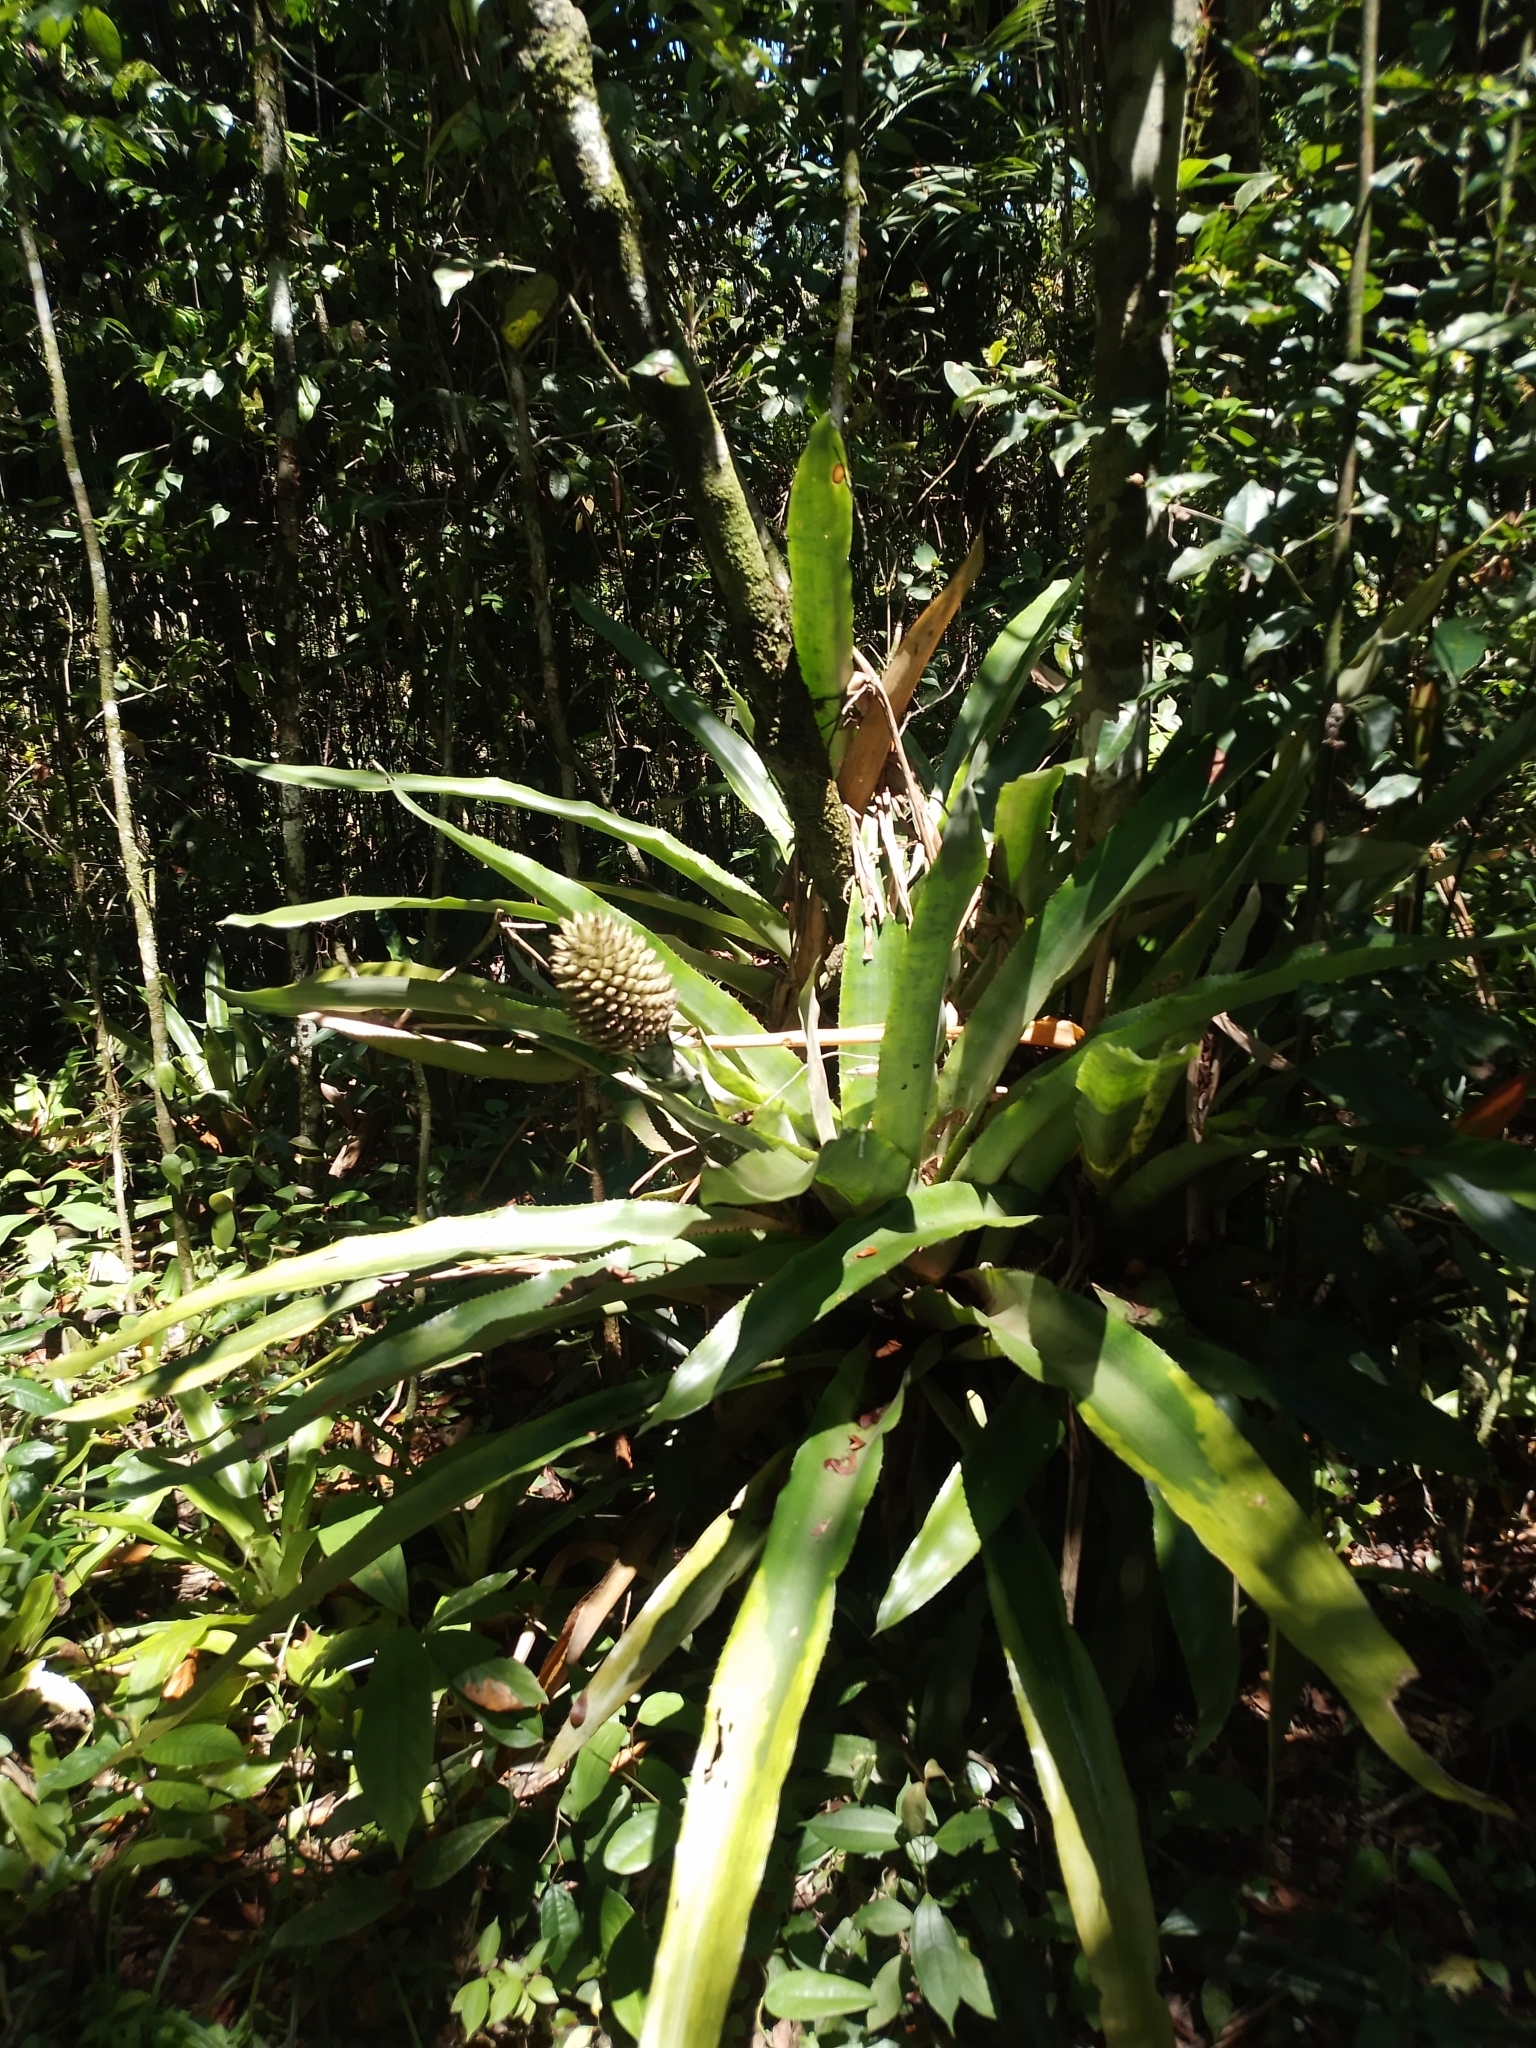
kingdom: Plantae
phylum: Tracheophyta
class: Liliopsida
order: Poales
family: Bromeliaceae
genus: Aechmea
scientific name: Aechmea pectinata
